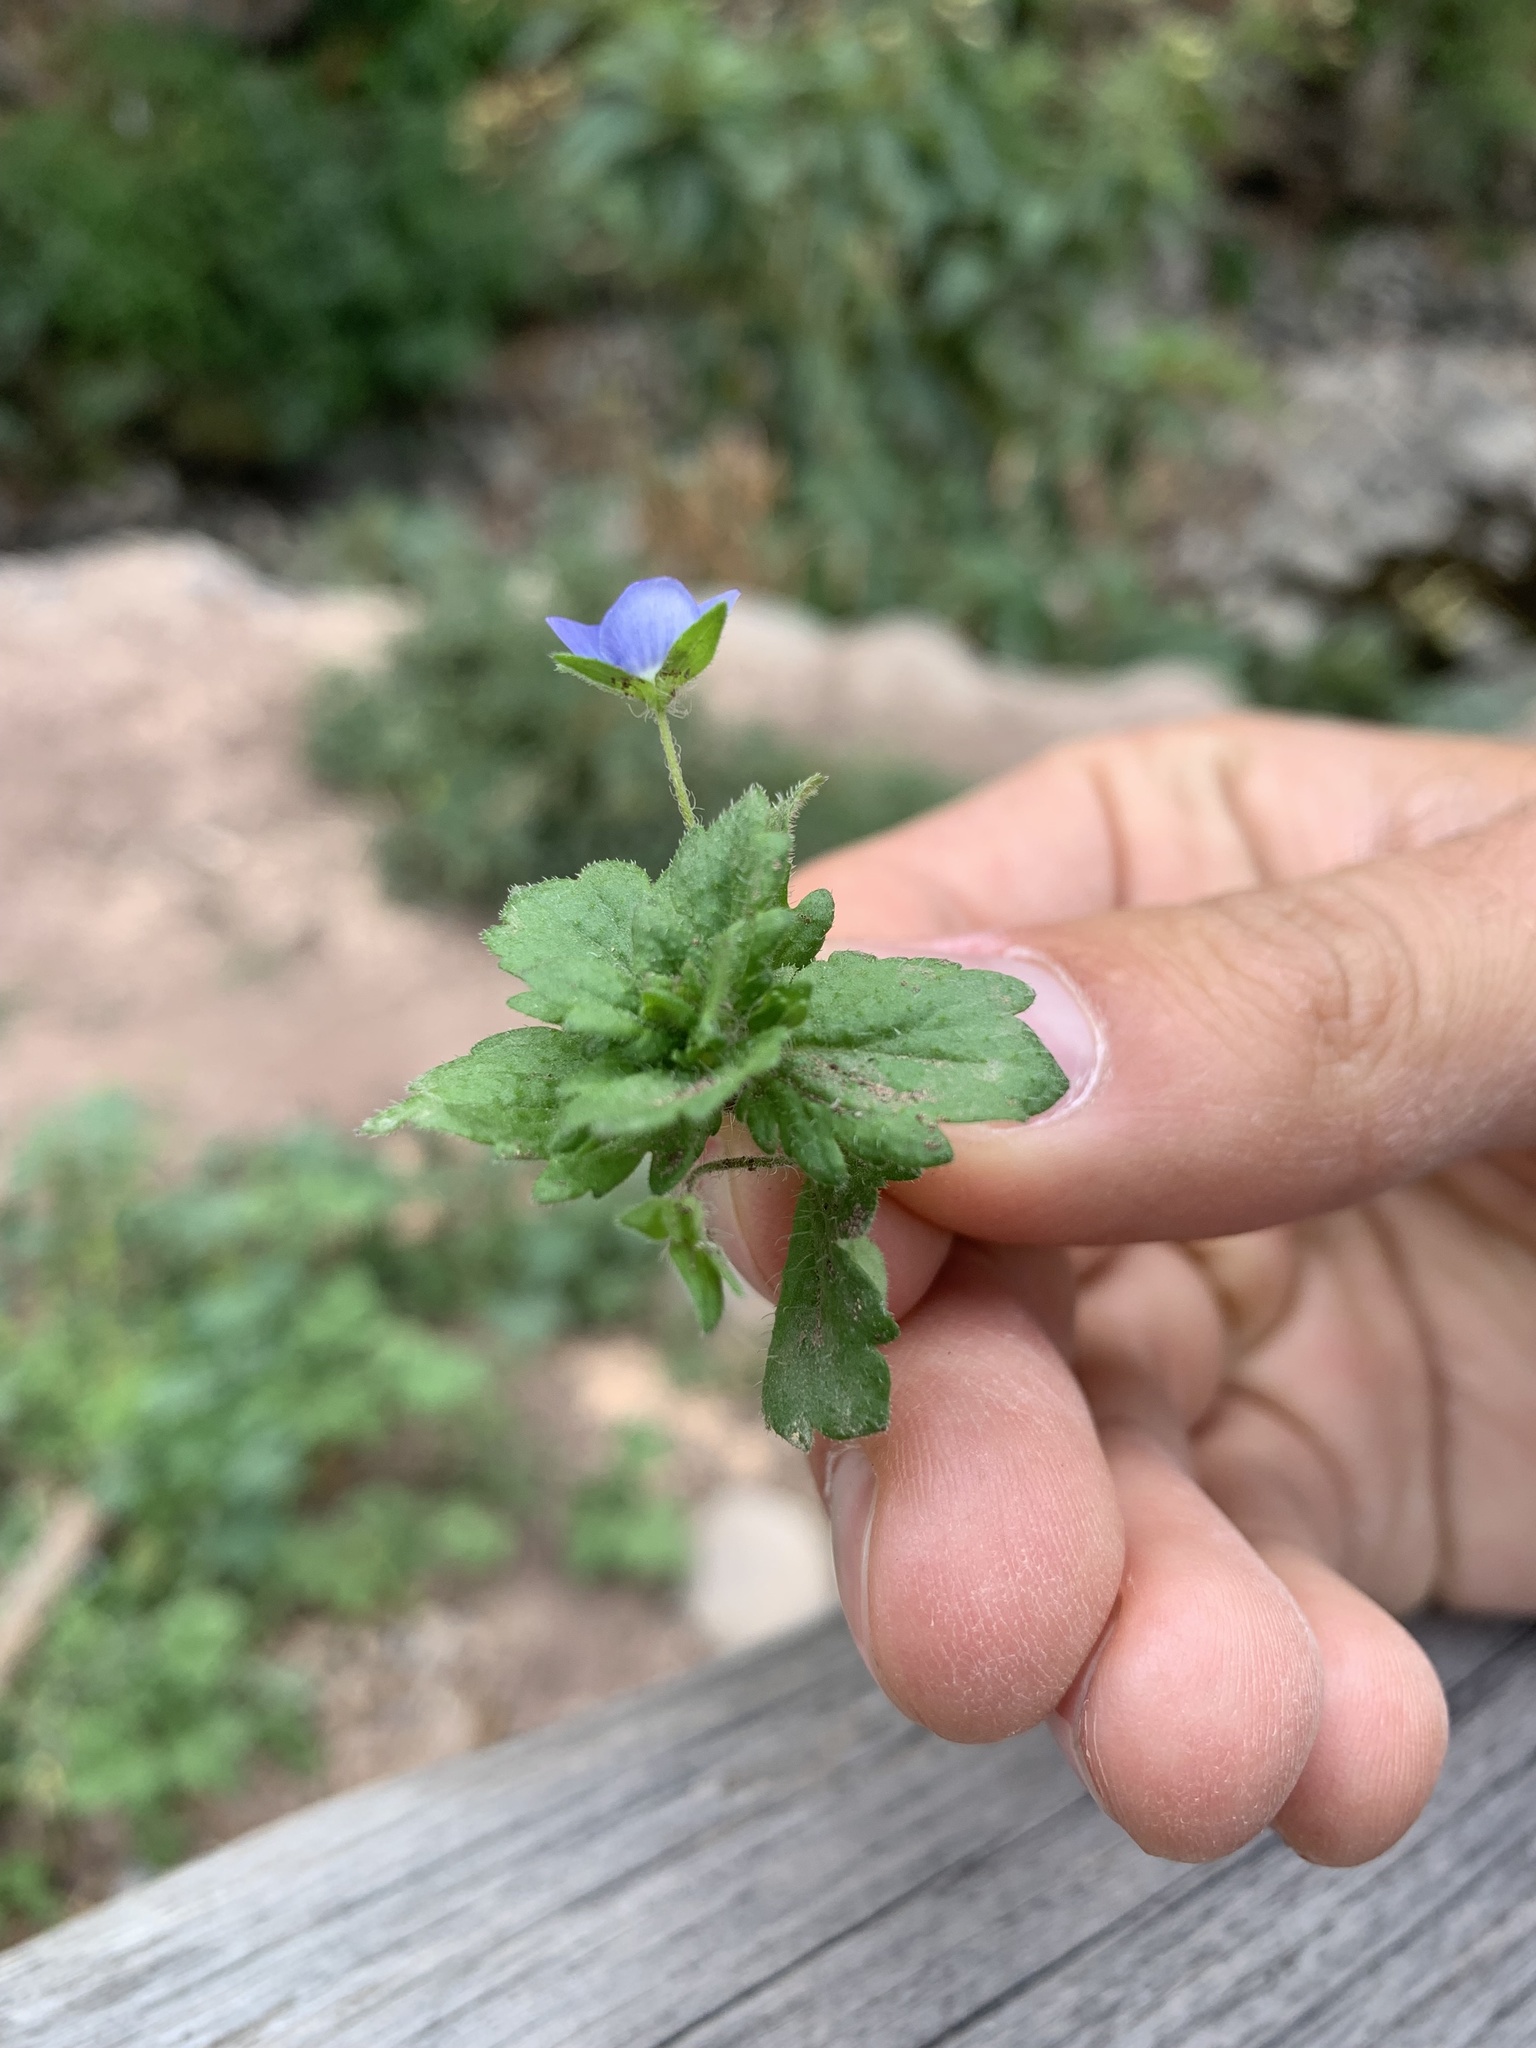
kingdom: Plantae
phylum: Tracheophyta
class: Magnoliopsida
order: Lamiales
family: Plantaginaceae
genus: Veronica
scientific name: Veronica persica
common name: Common field-speedwell
